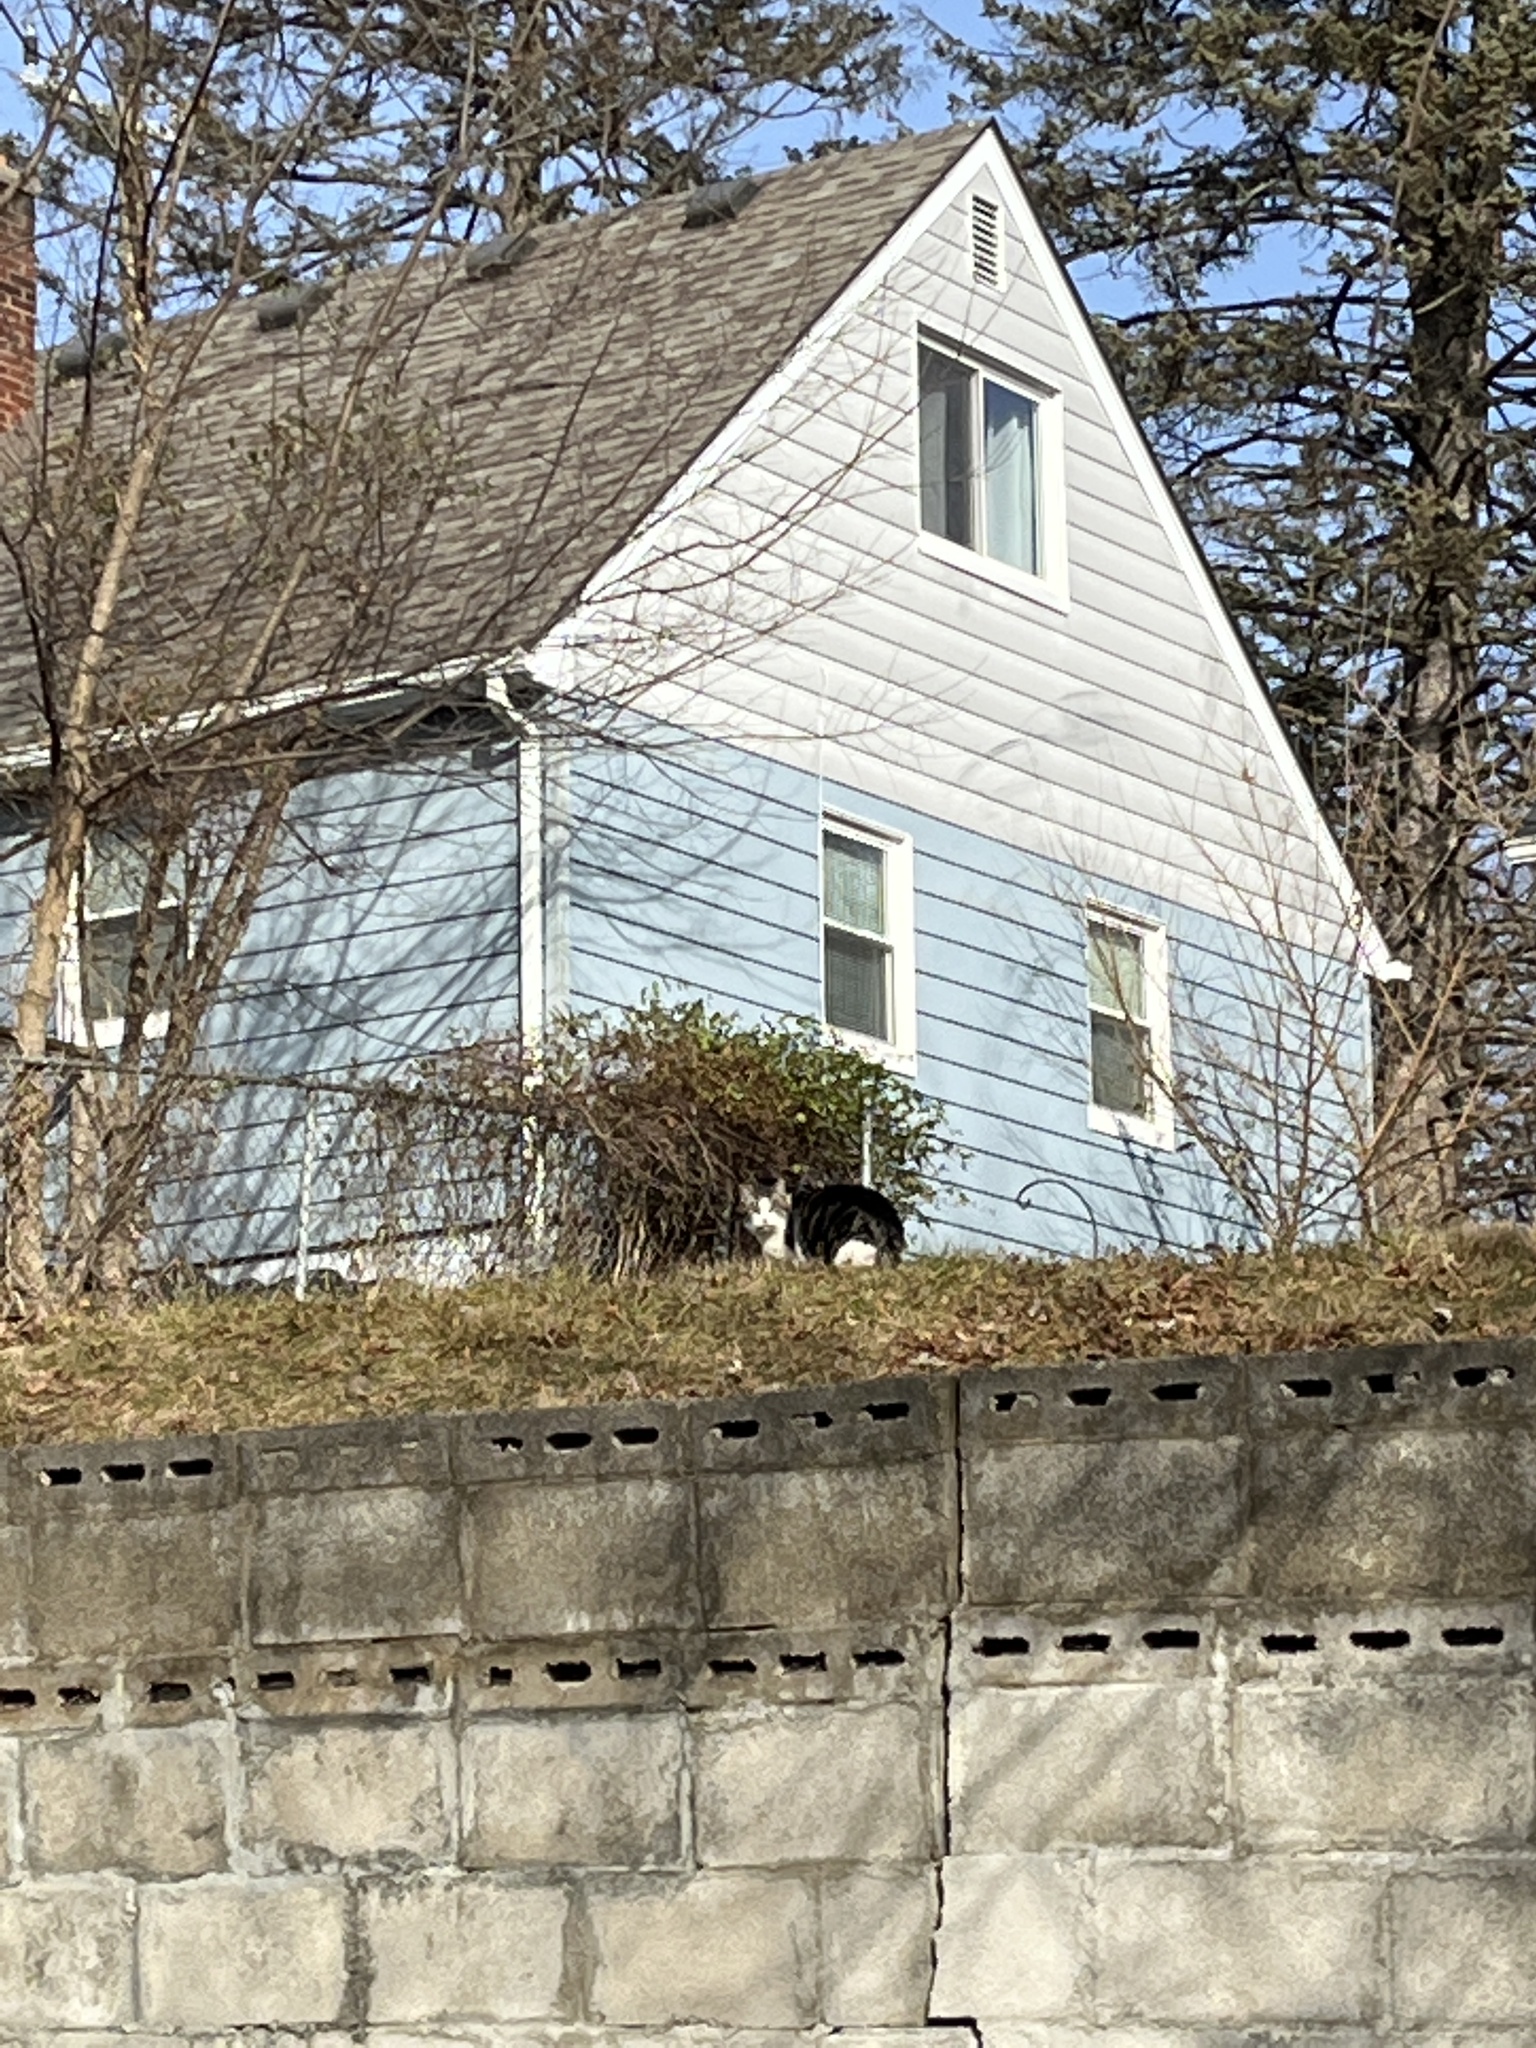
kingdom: Animalia
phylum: Chordata
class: Mammalia
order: Carnivora
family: Felidae
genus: Felis
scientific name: Felis catus
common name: Domestic cat
